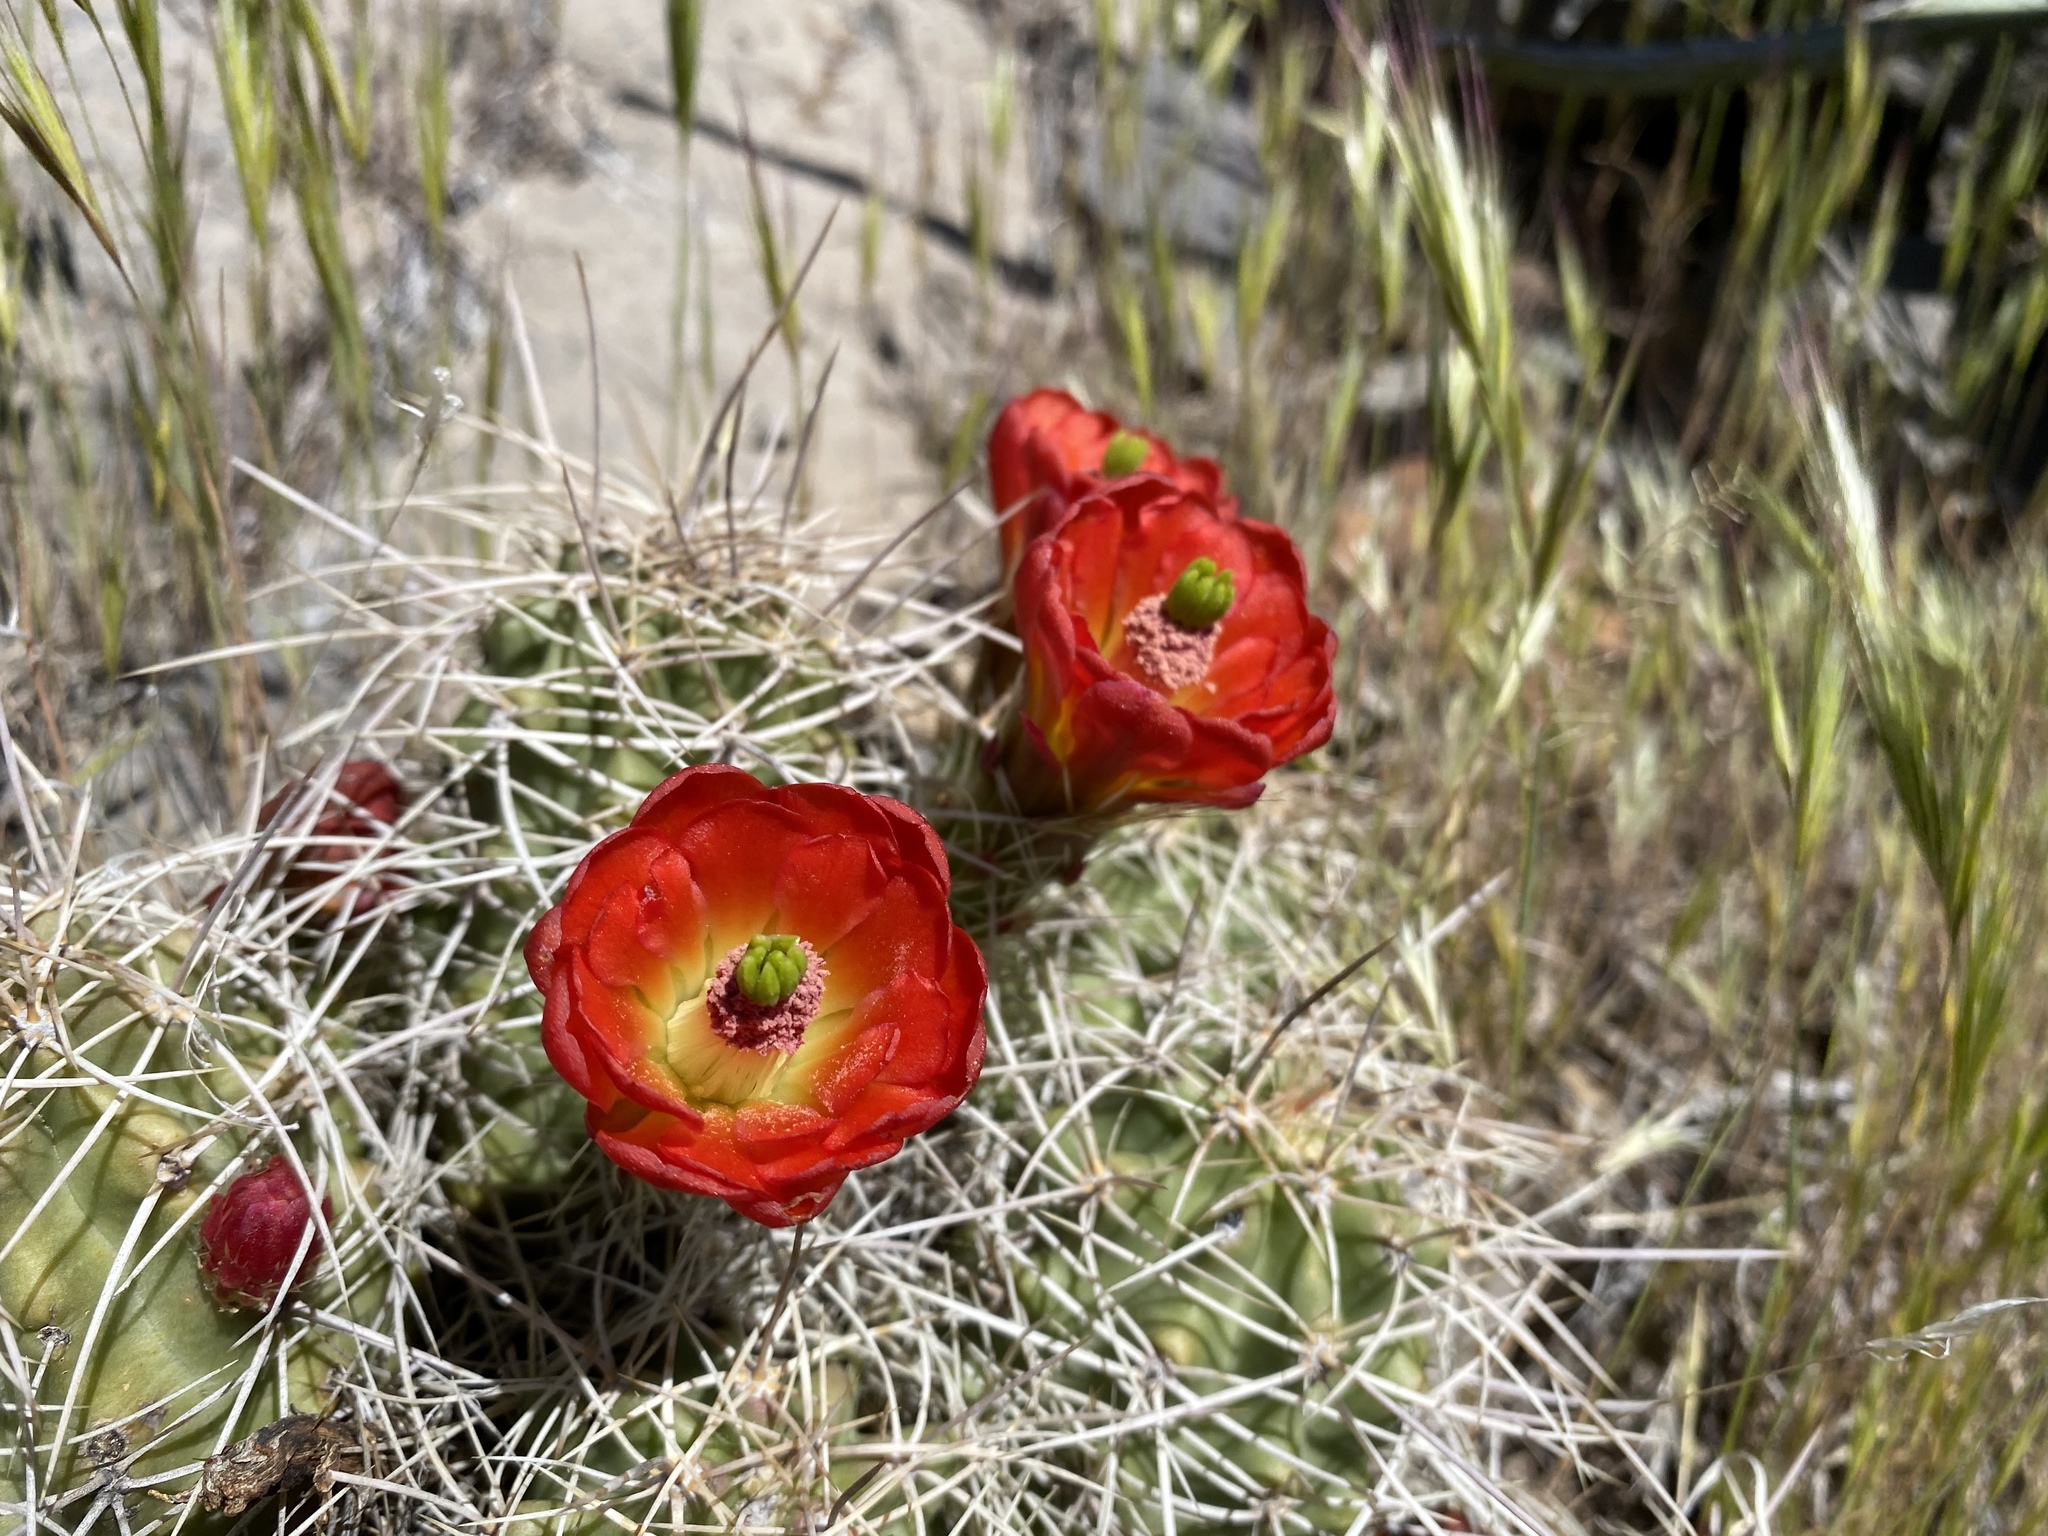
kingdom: Plantae
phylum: Tracheophyta
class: Magnoliopsida
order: Caryophyllales
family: Cactaceae
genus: Echinocereus
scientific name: Echinocereus triglochidiatus
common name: Claretcup hedgehog
